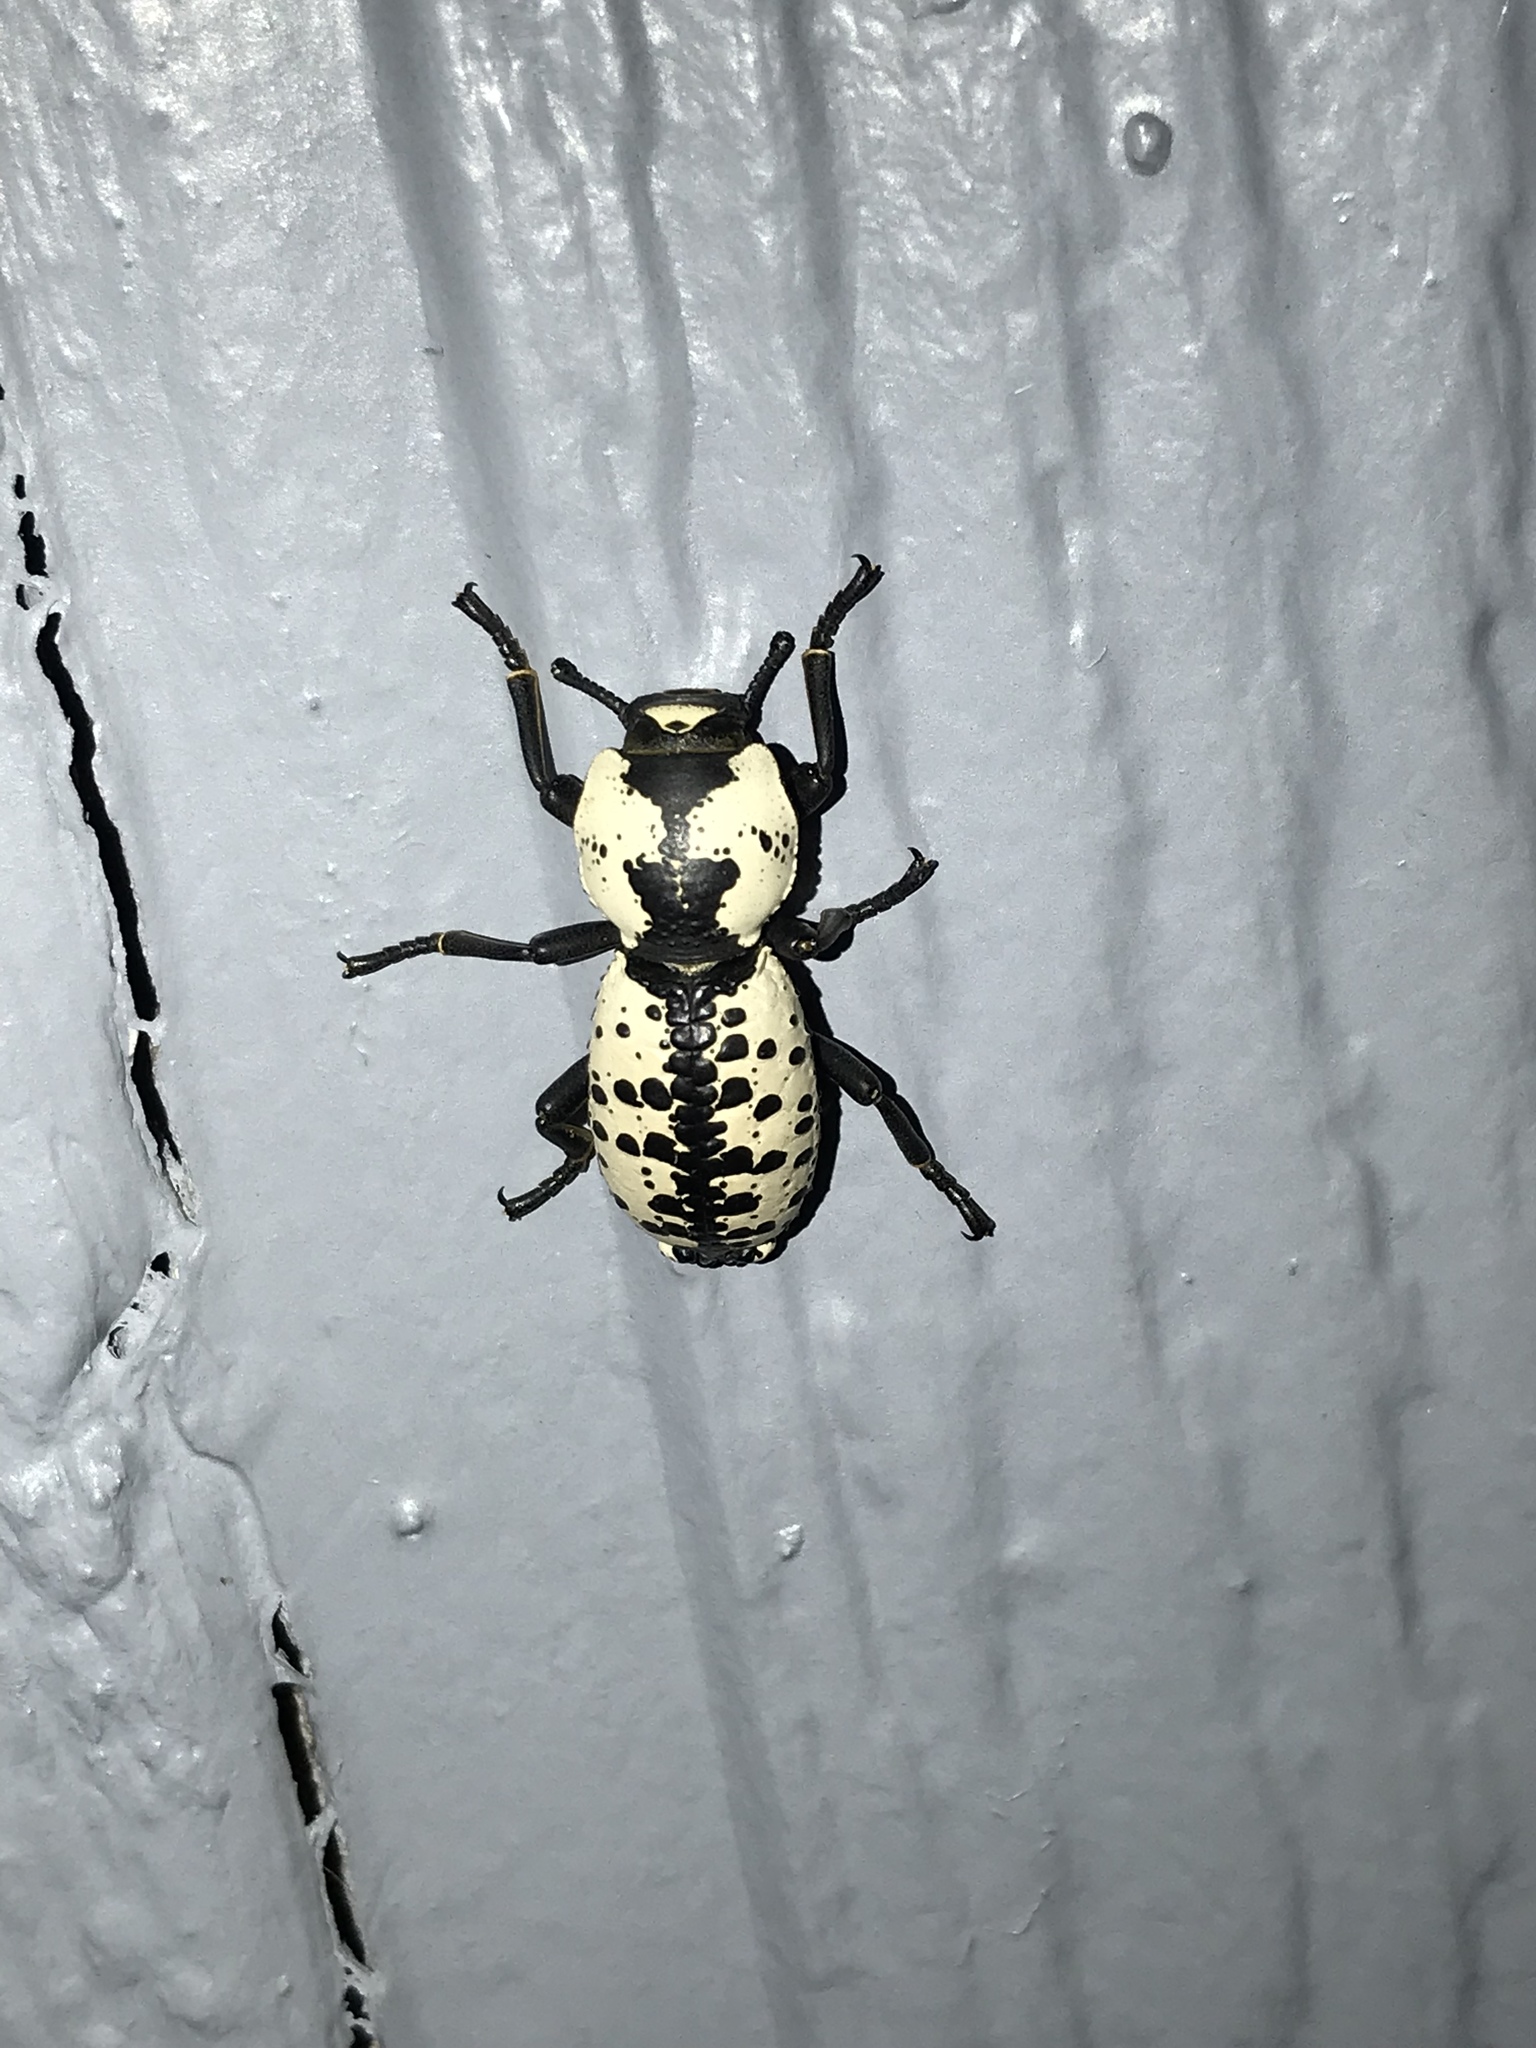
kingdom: Animalia
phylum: Arthropoda
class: Insecta
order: Coleoptera
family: Zopheridae
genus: Zopherus
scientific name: Zopherus nodulosus
